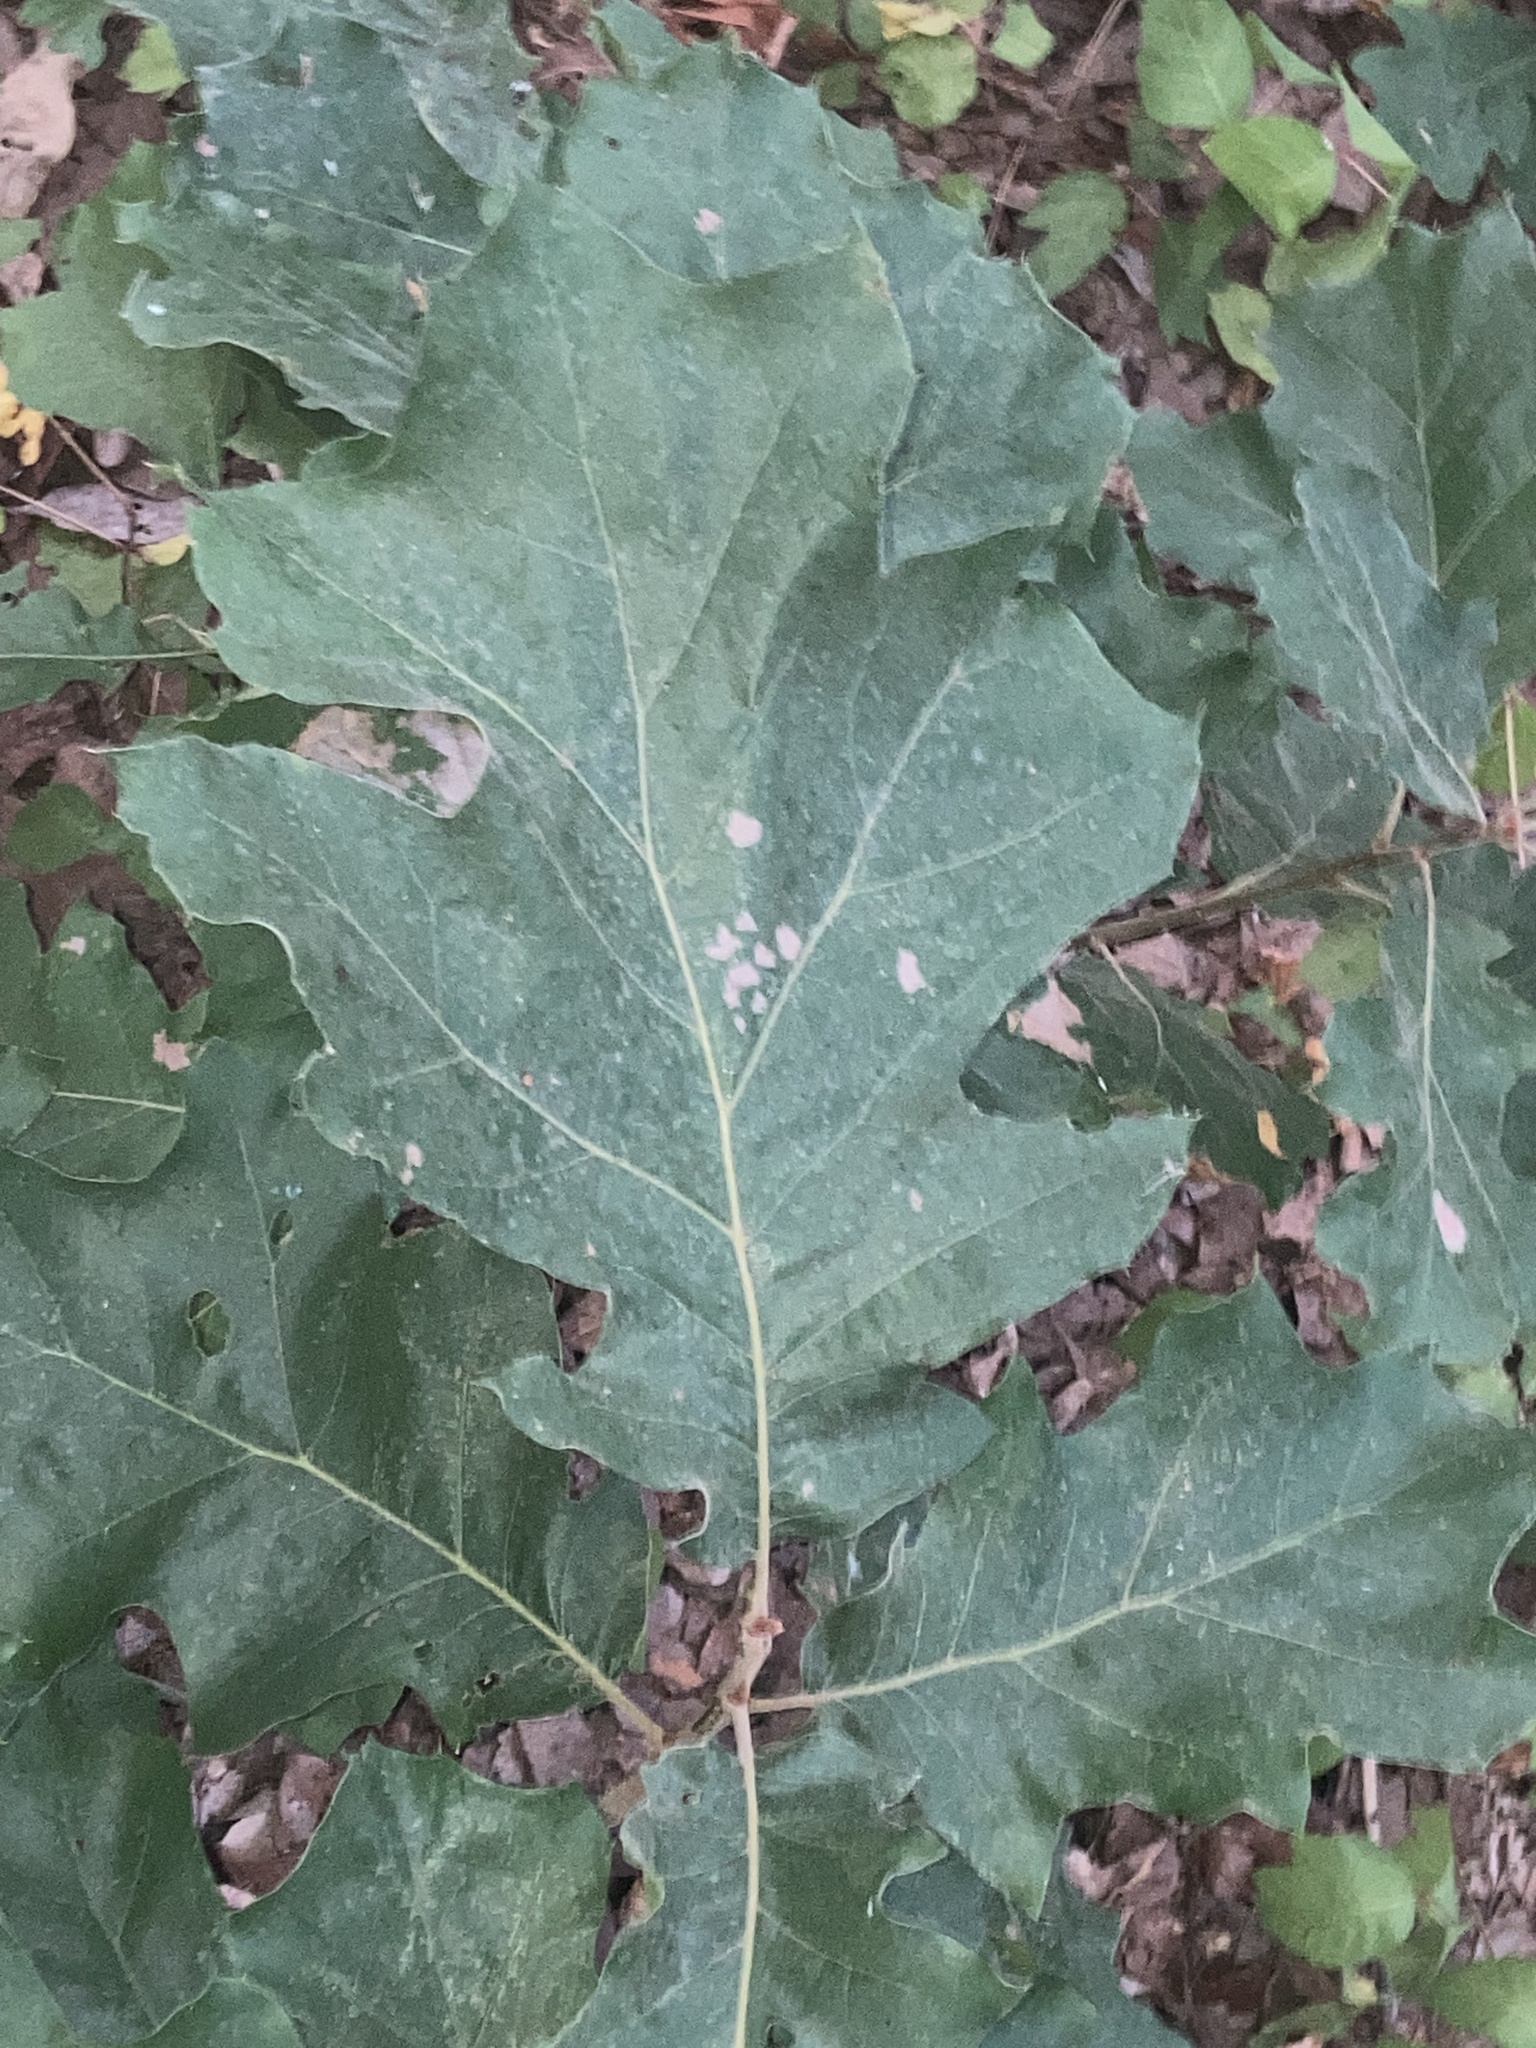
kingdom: Plantae
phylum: Tracheophyta
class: Magnoliopsida
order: Fagales
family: Fagaceae
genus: Quercus
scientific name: Quercus velutina
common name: Black oak
